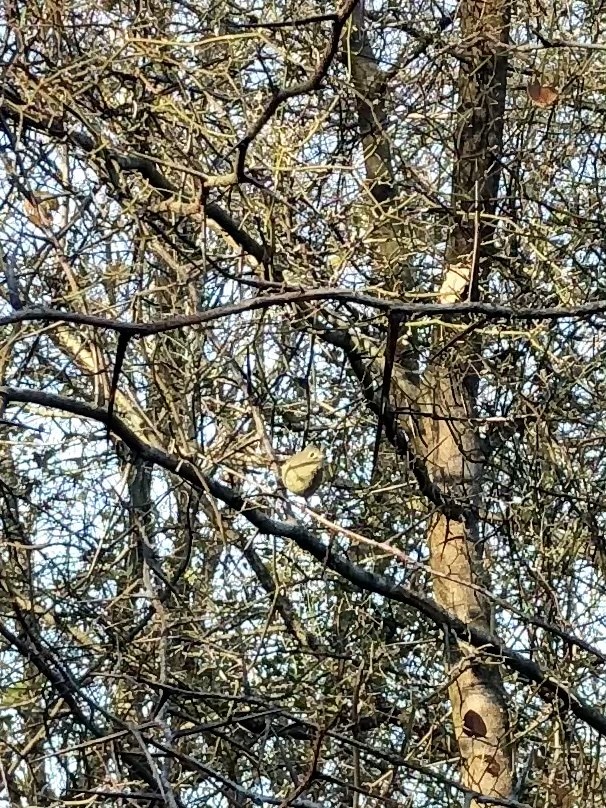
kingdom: Animalia
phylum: Chordata
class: Aves
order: Passeriformes
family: Regulidae
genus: Regulus
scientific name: Regulus calendula
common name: Ruby-crowned kinglet
